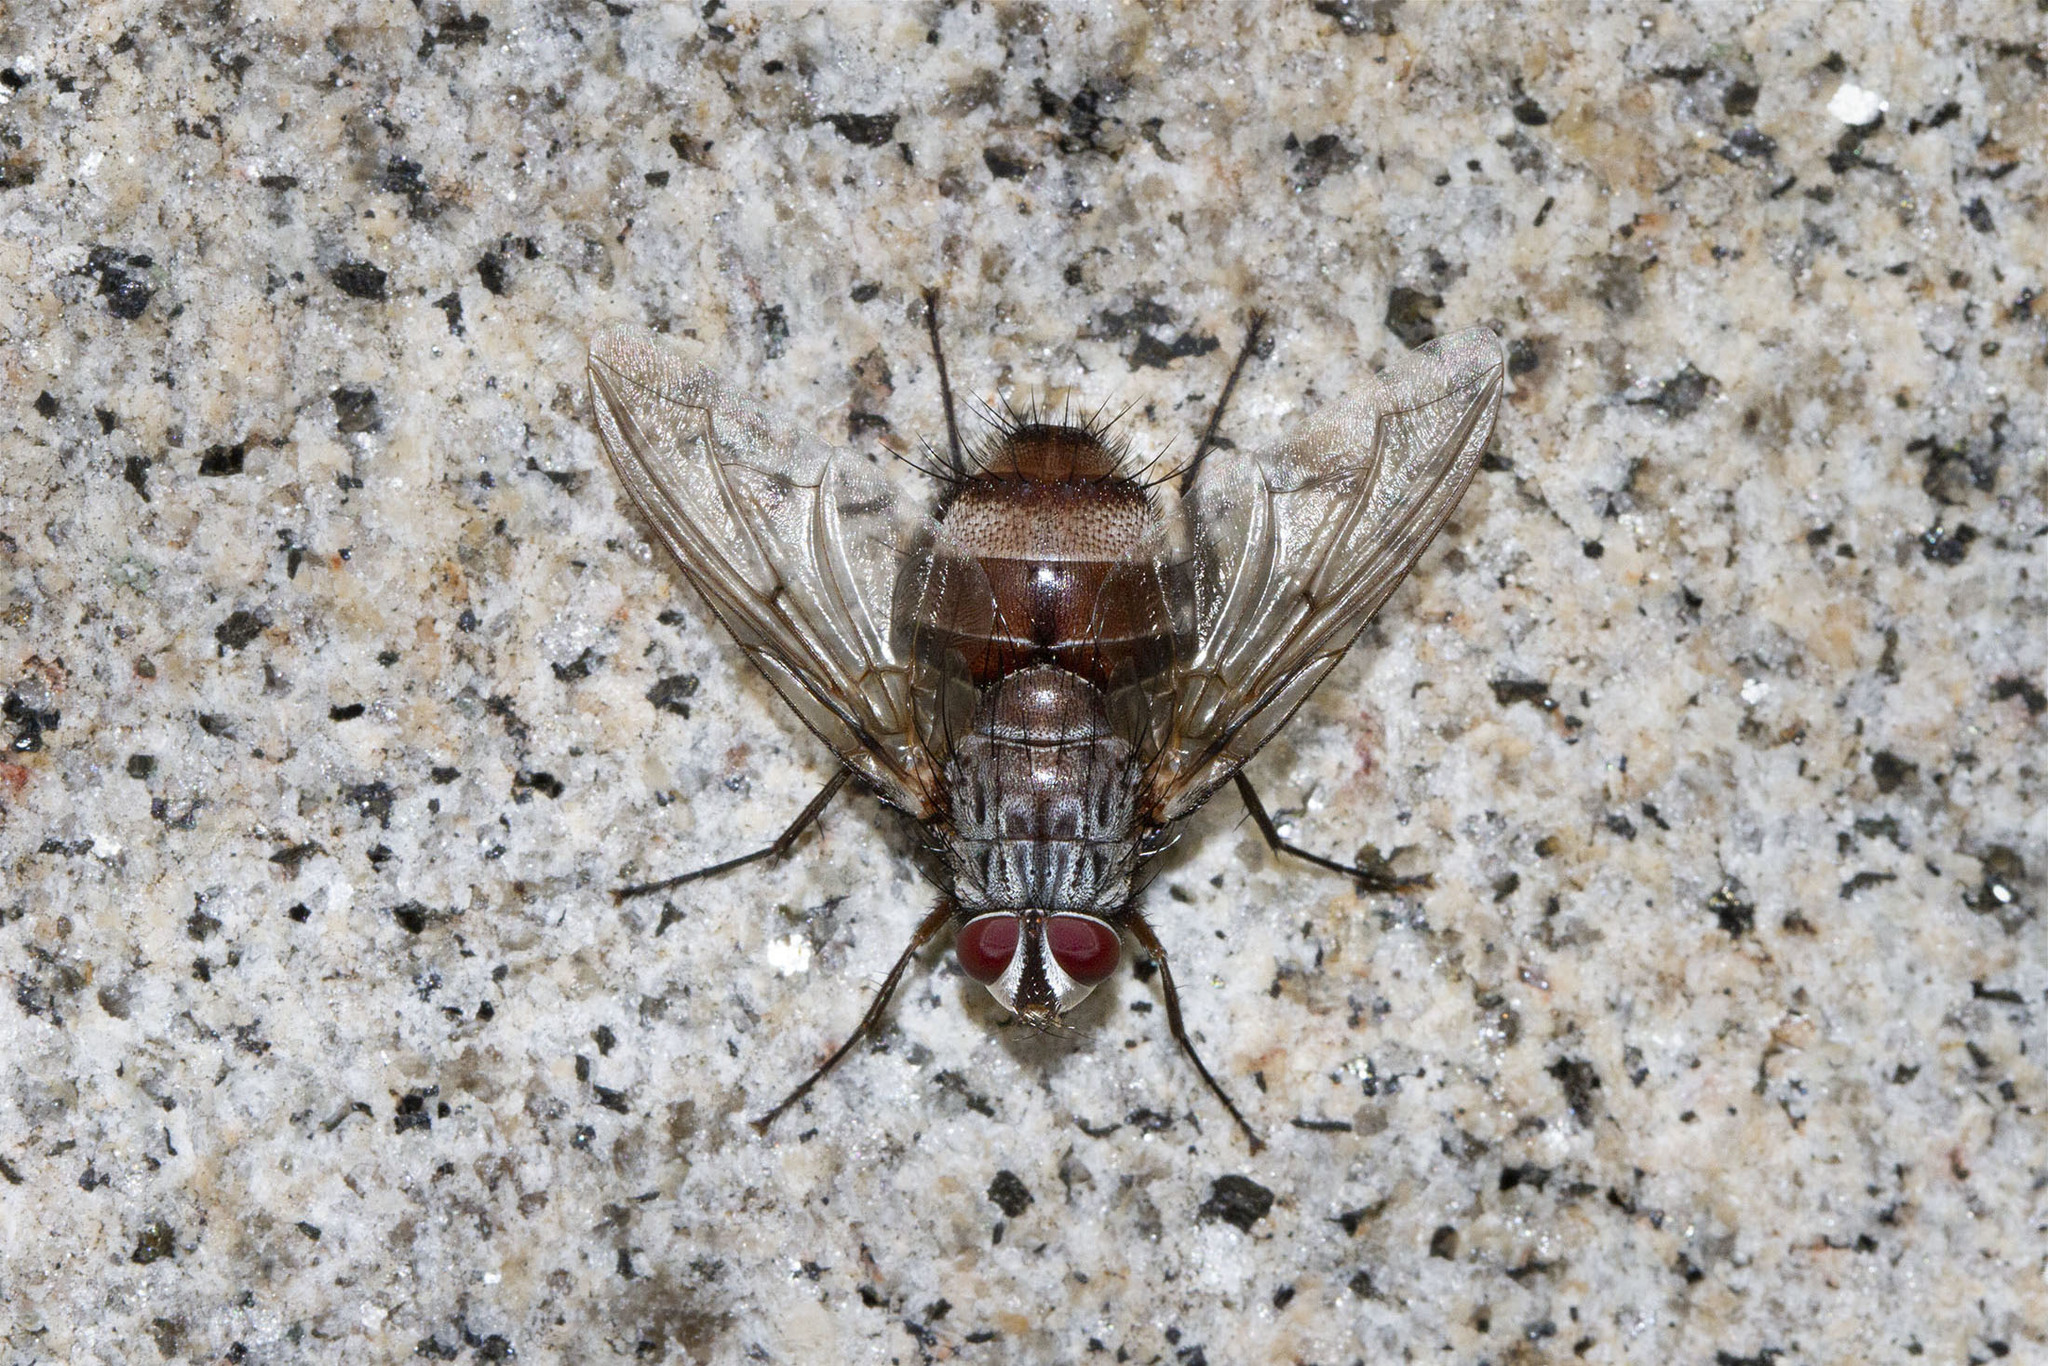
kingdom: Animalia
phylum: Arthropoda
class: Insecta
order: Diptera
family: Tachinidae
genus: Billaea
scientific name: Billaea rutilans
